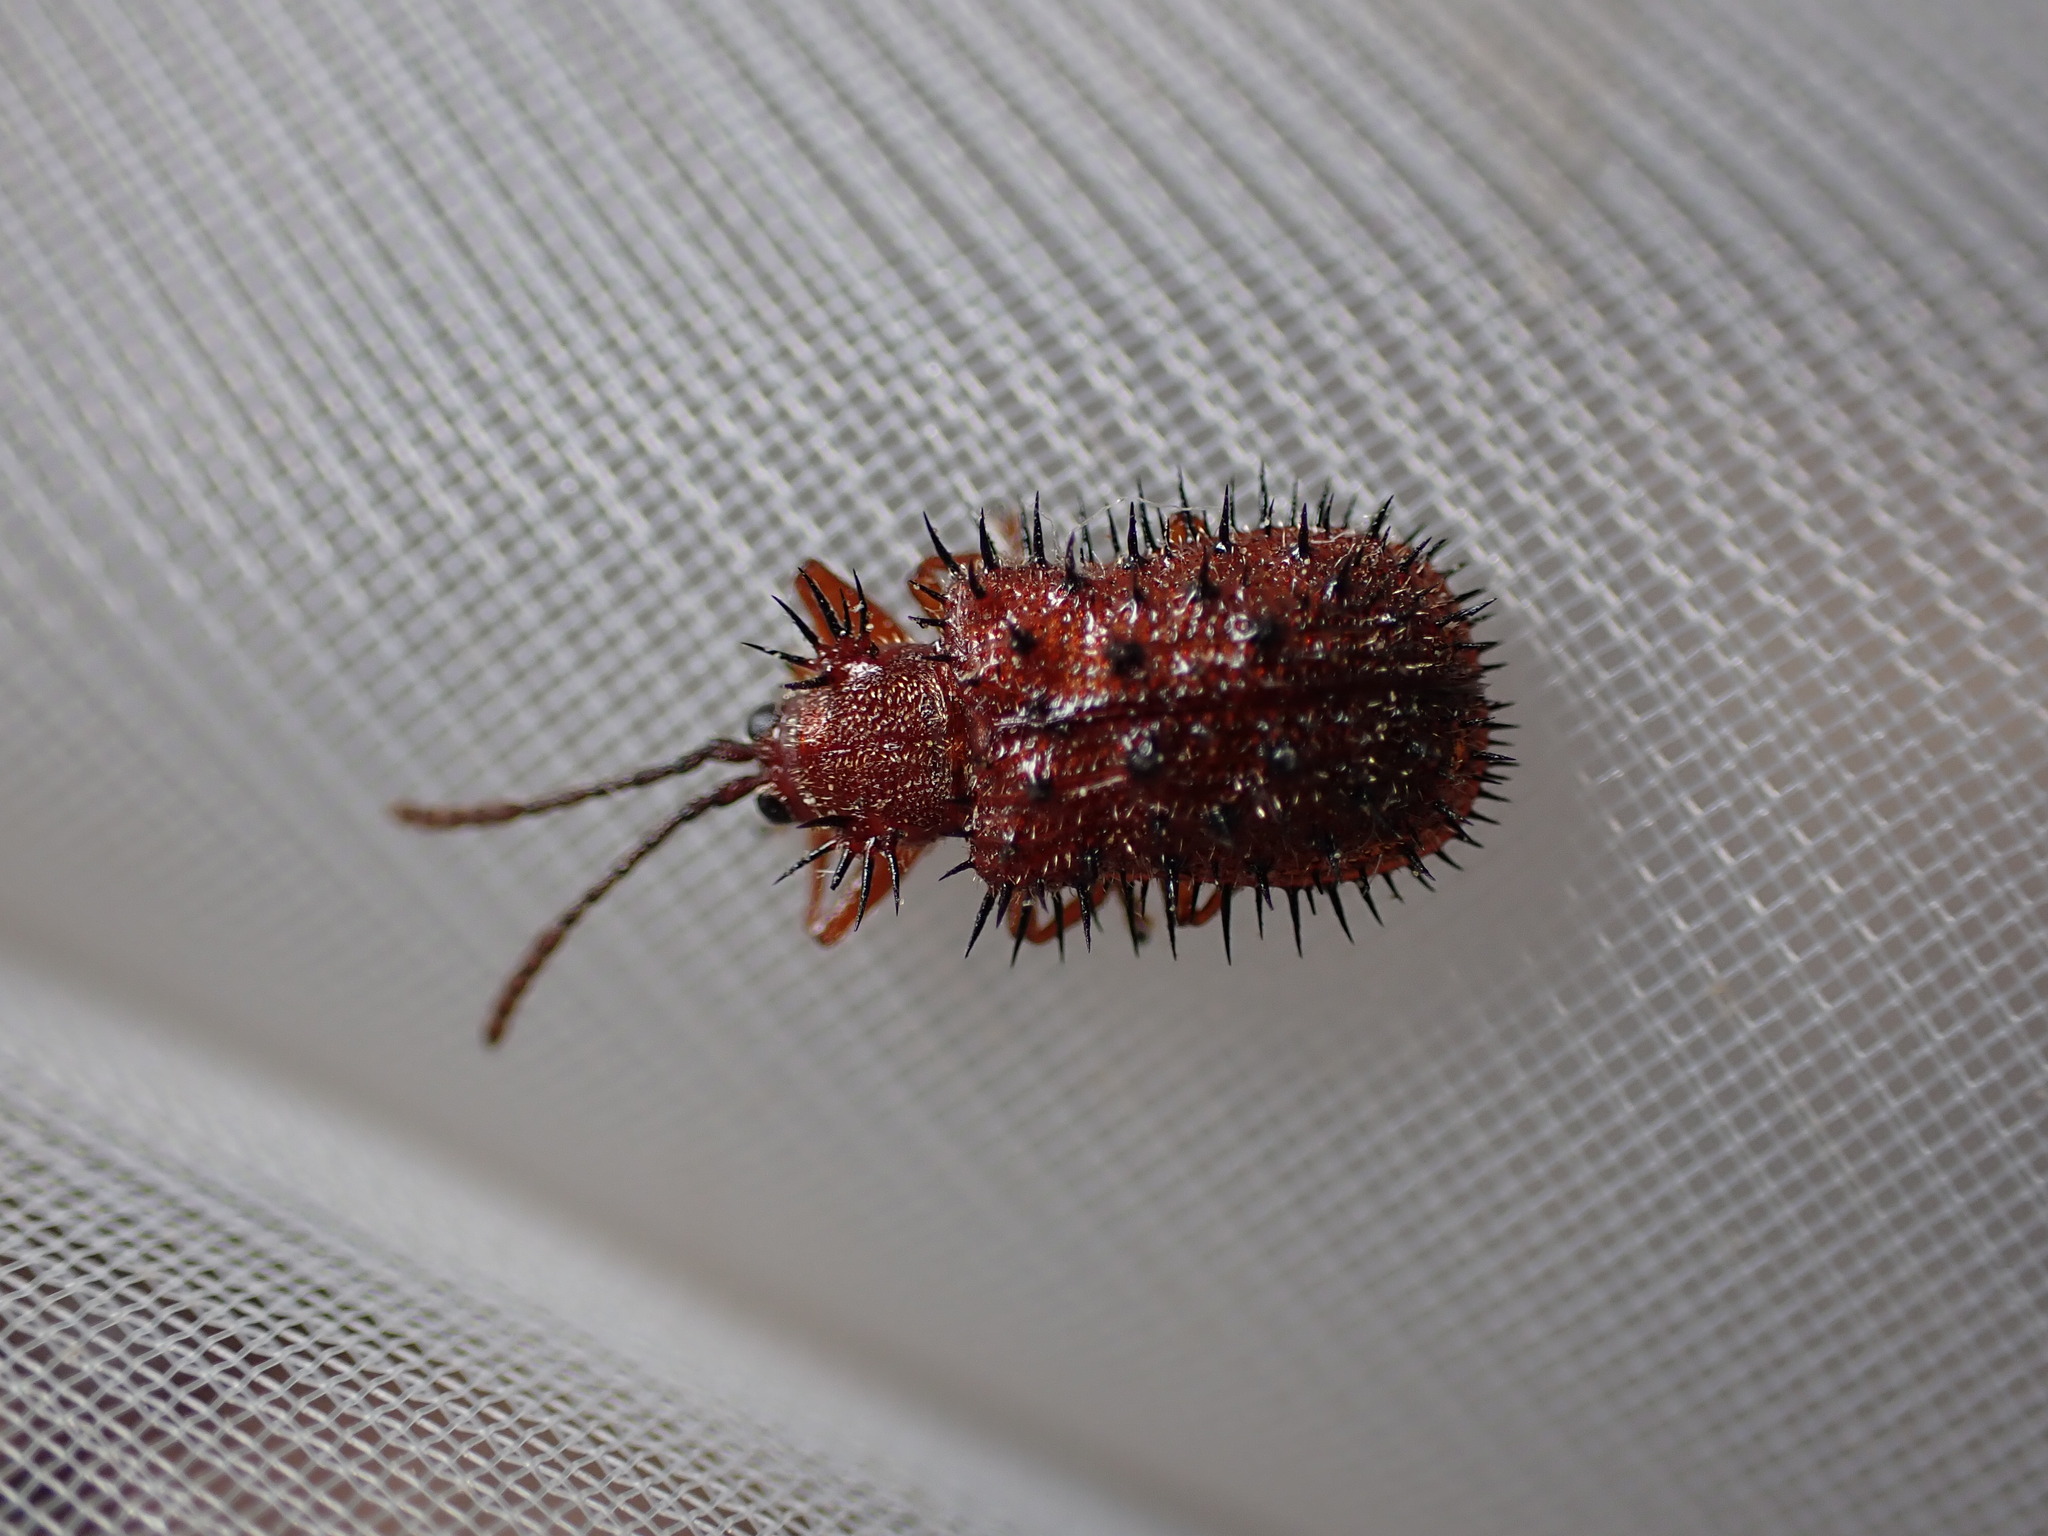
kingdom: Animalia
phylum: Arthropoda
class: Insecta
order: Coleoptera
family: Chrysomelidae
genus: Dicladispa
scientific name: Dicladispa testacea
